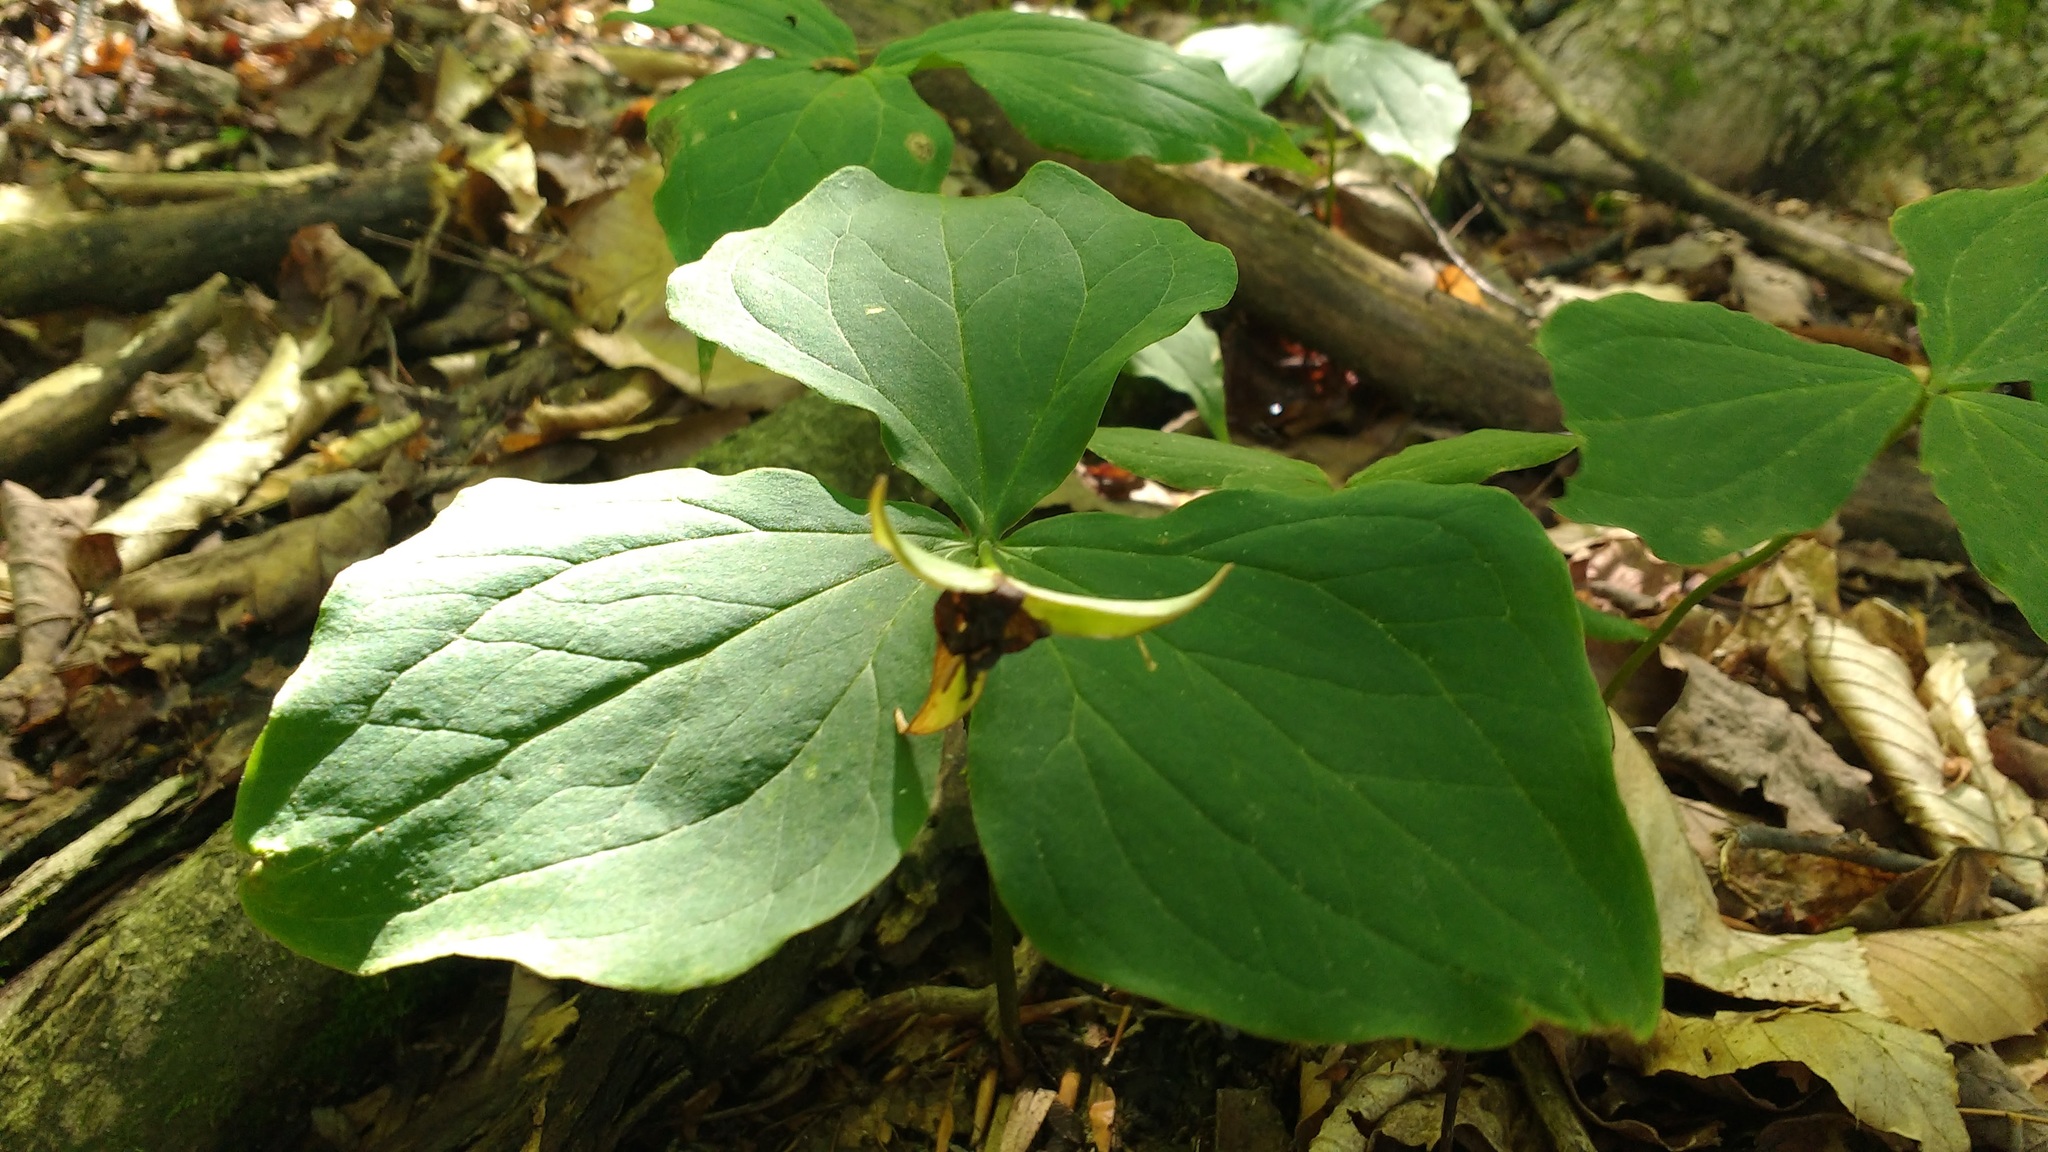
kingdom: Plantae
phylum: Tracheophyta
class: Liliopsida
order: Liliales
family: Melanthiaceae
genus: Trillium
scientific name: Trillium erectum
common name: Purple trillium
